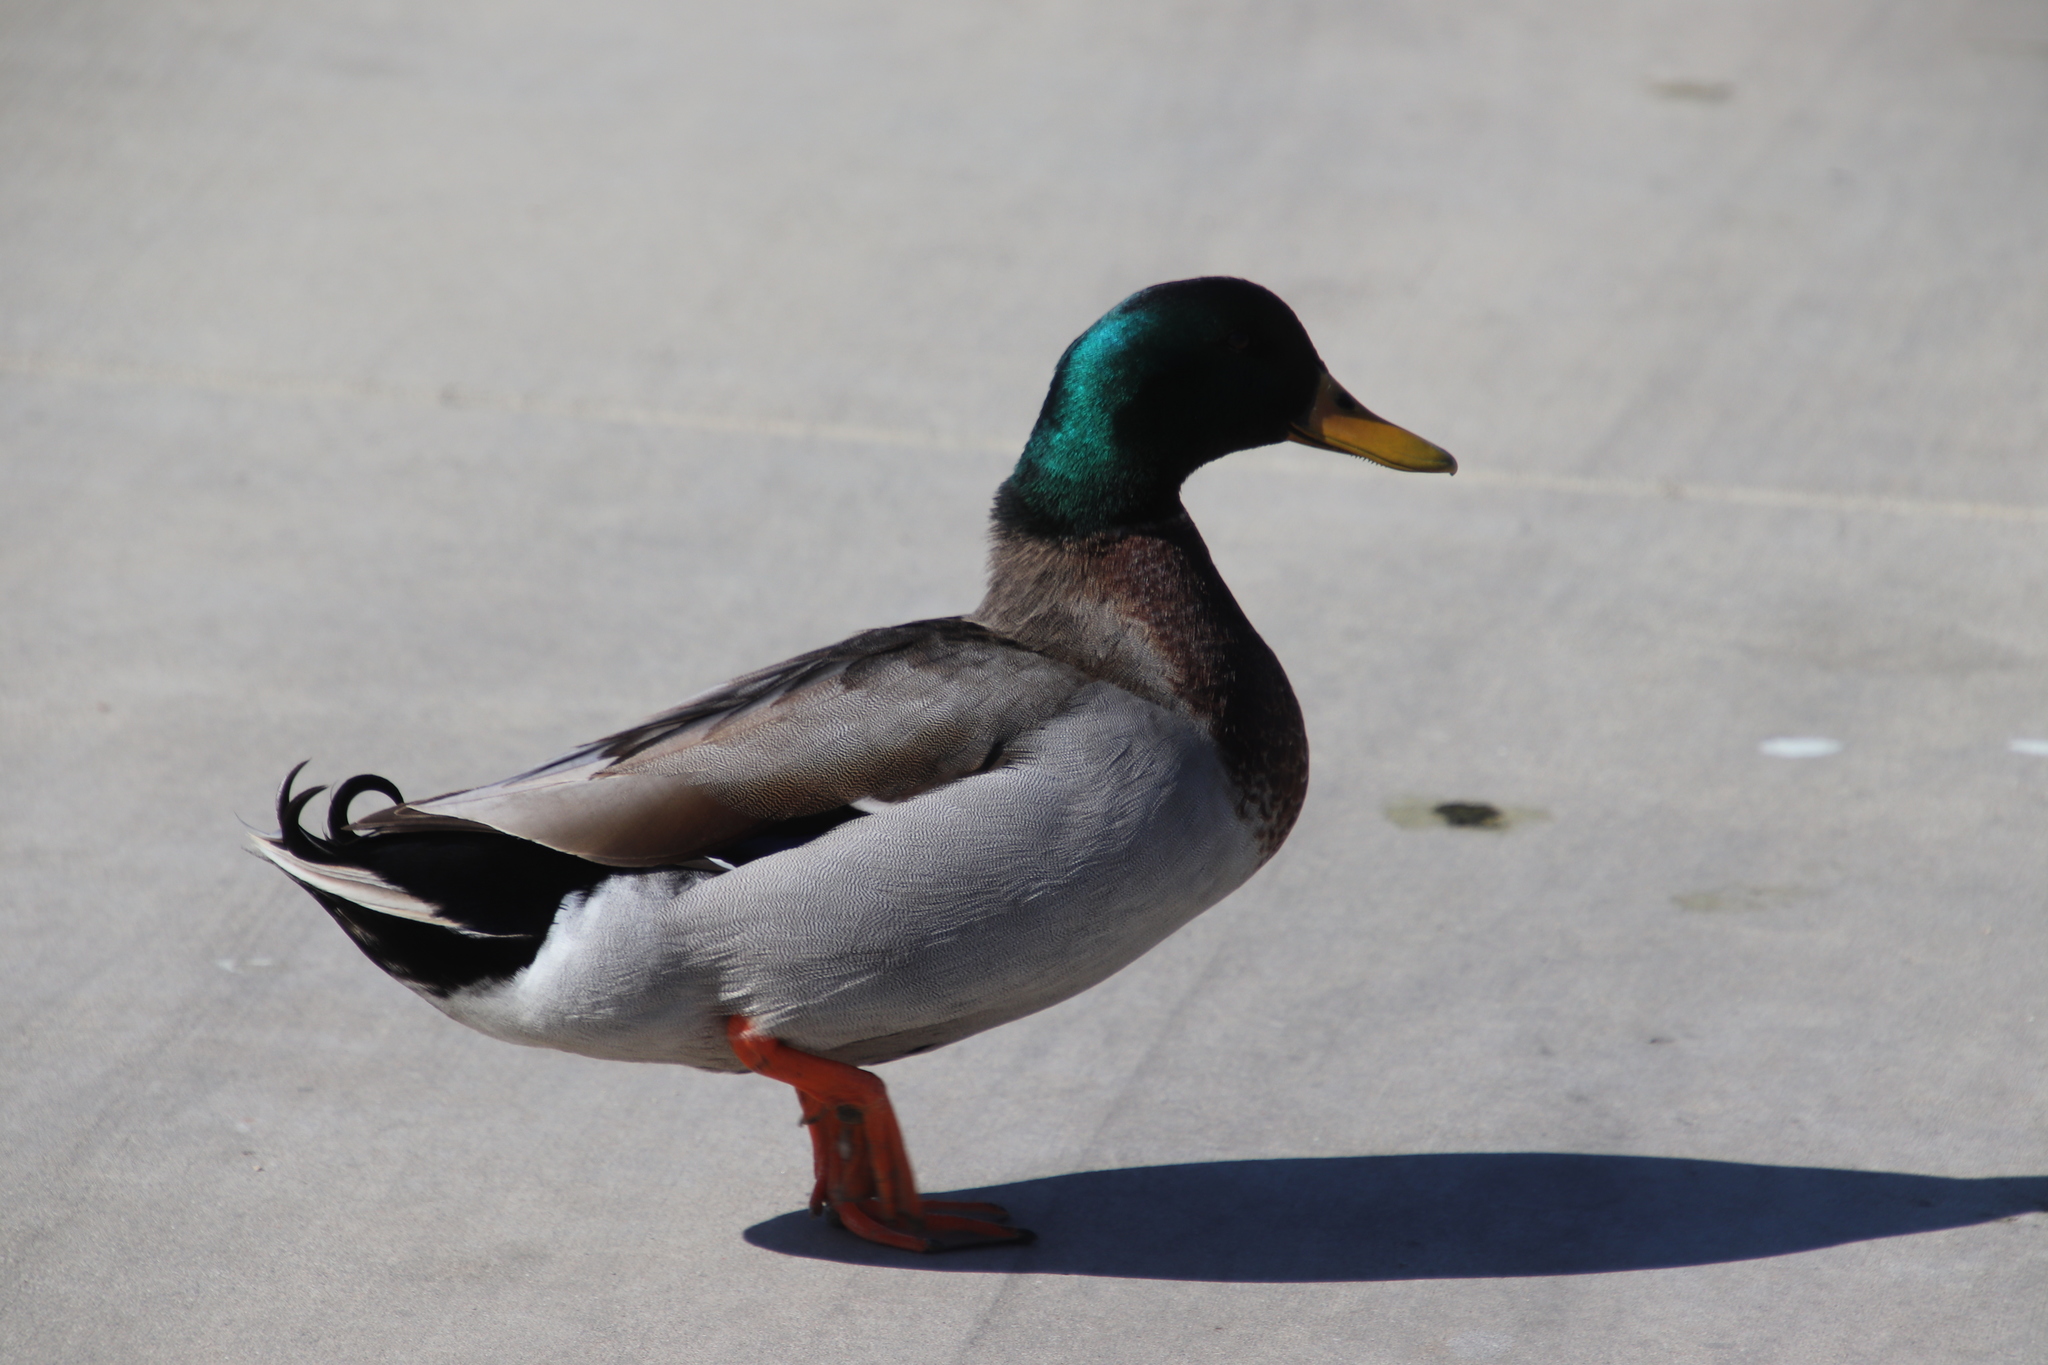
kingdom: Animalia
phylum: Chordata
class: Aves
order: Anseriformes
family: Anatidae
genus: Anas
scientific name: Anas platyrhynchos
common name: Mallard
